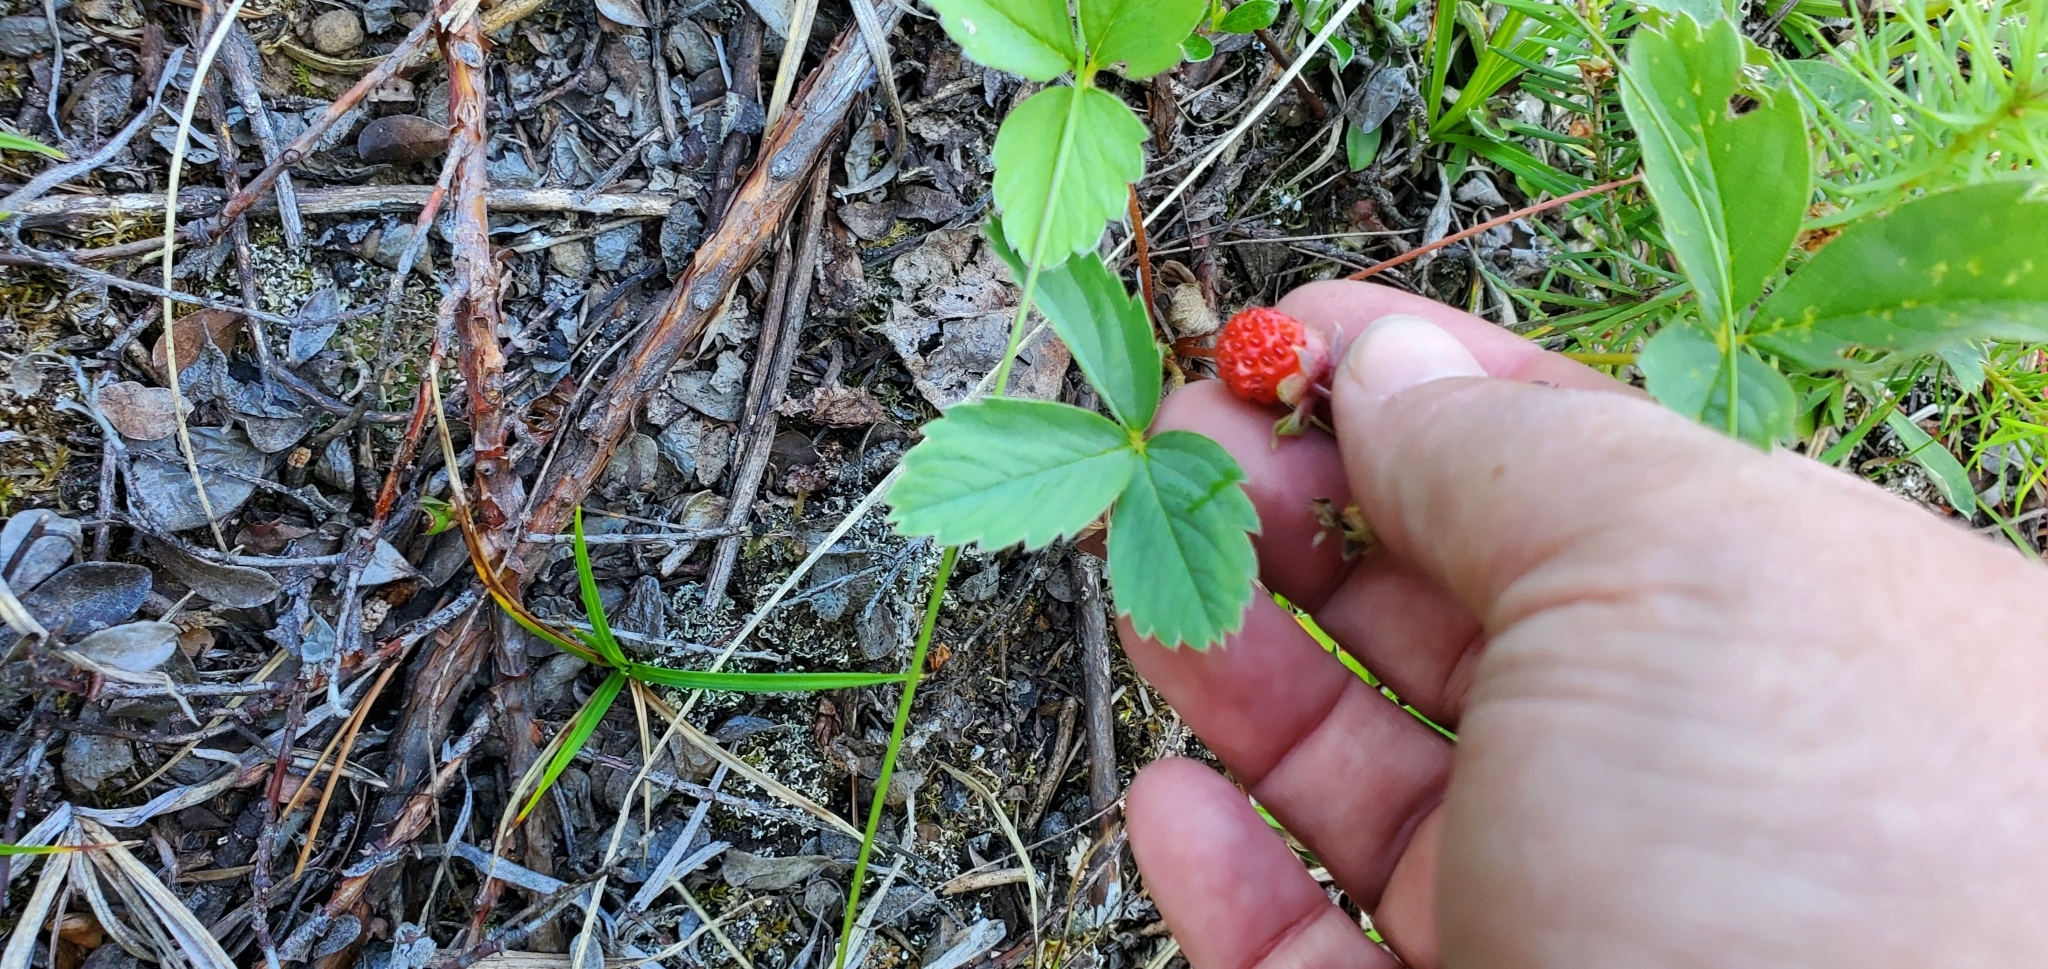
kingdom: Plantae
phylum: Tracheophyta
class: Magnoliopsida
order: Rosales
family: Rosaceae
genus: Fragaria
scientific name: Fragaria virginiana
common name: Thickleaved wild strawberry
